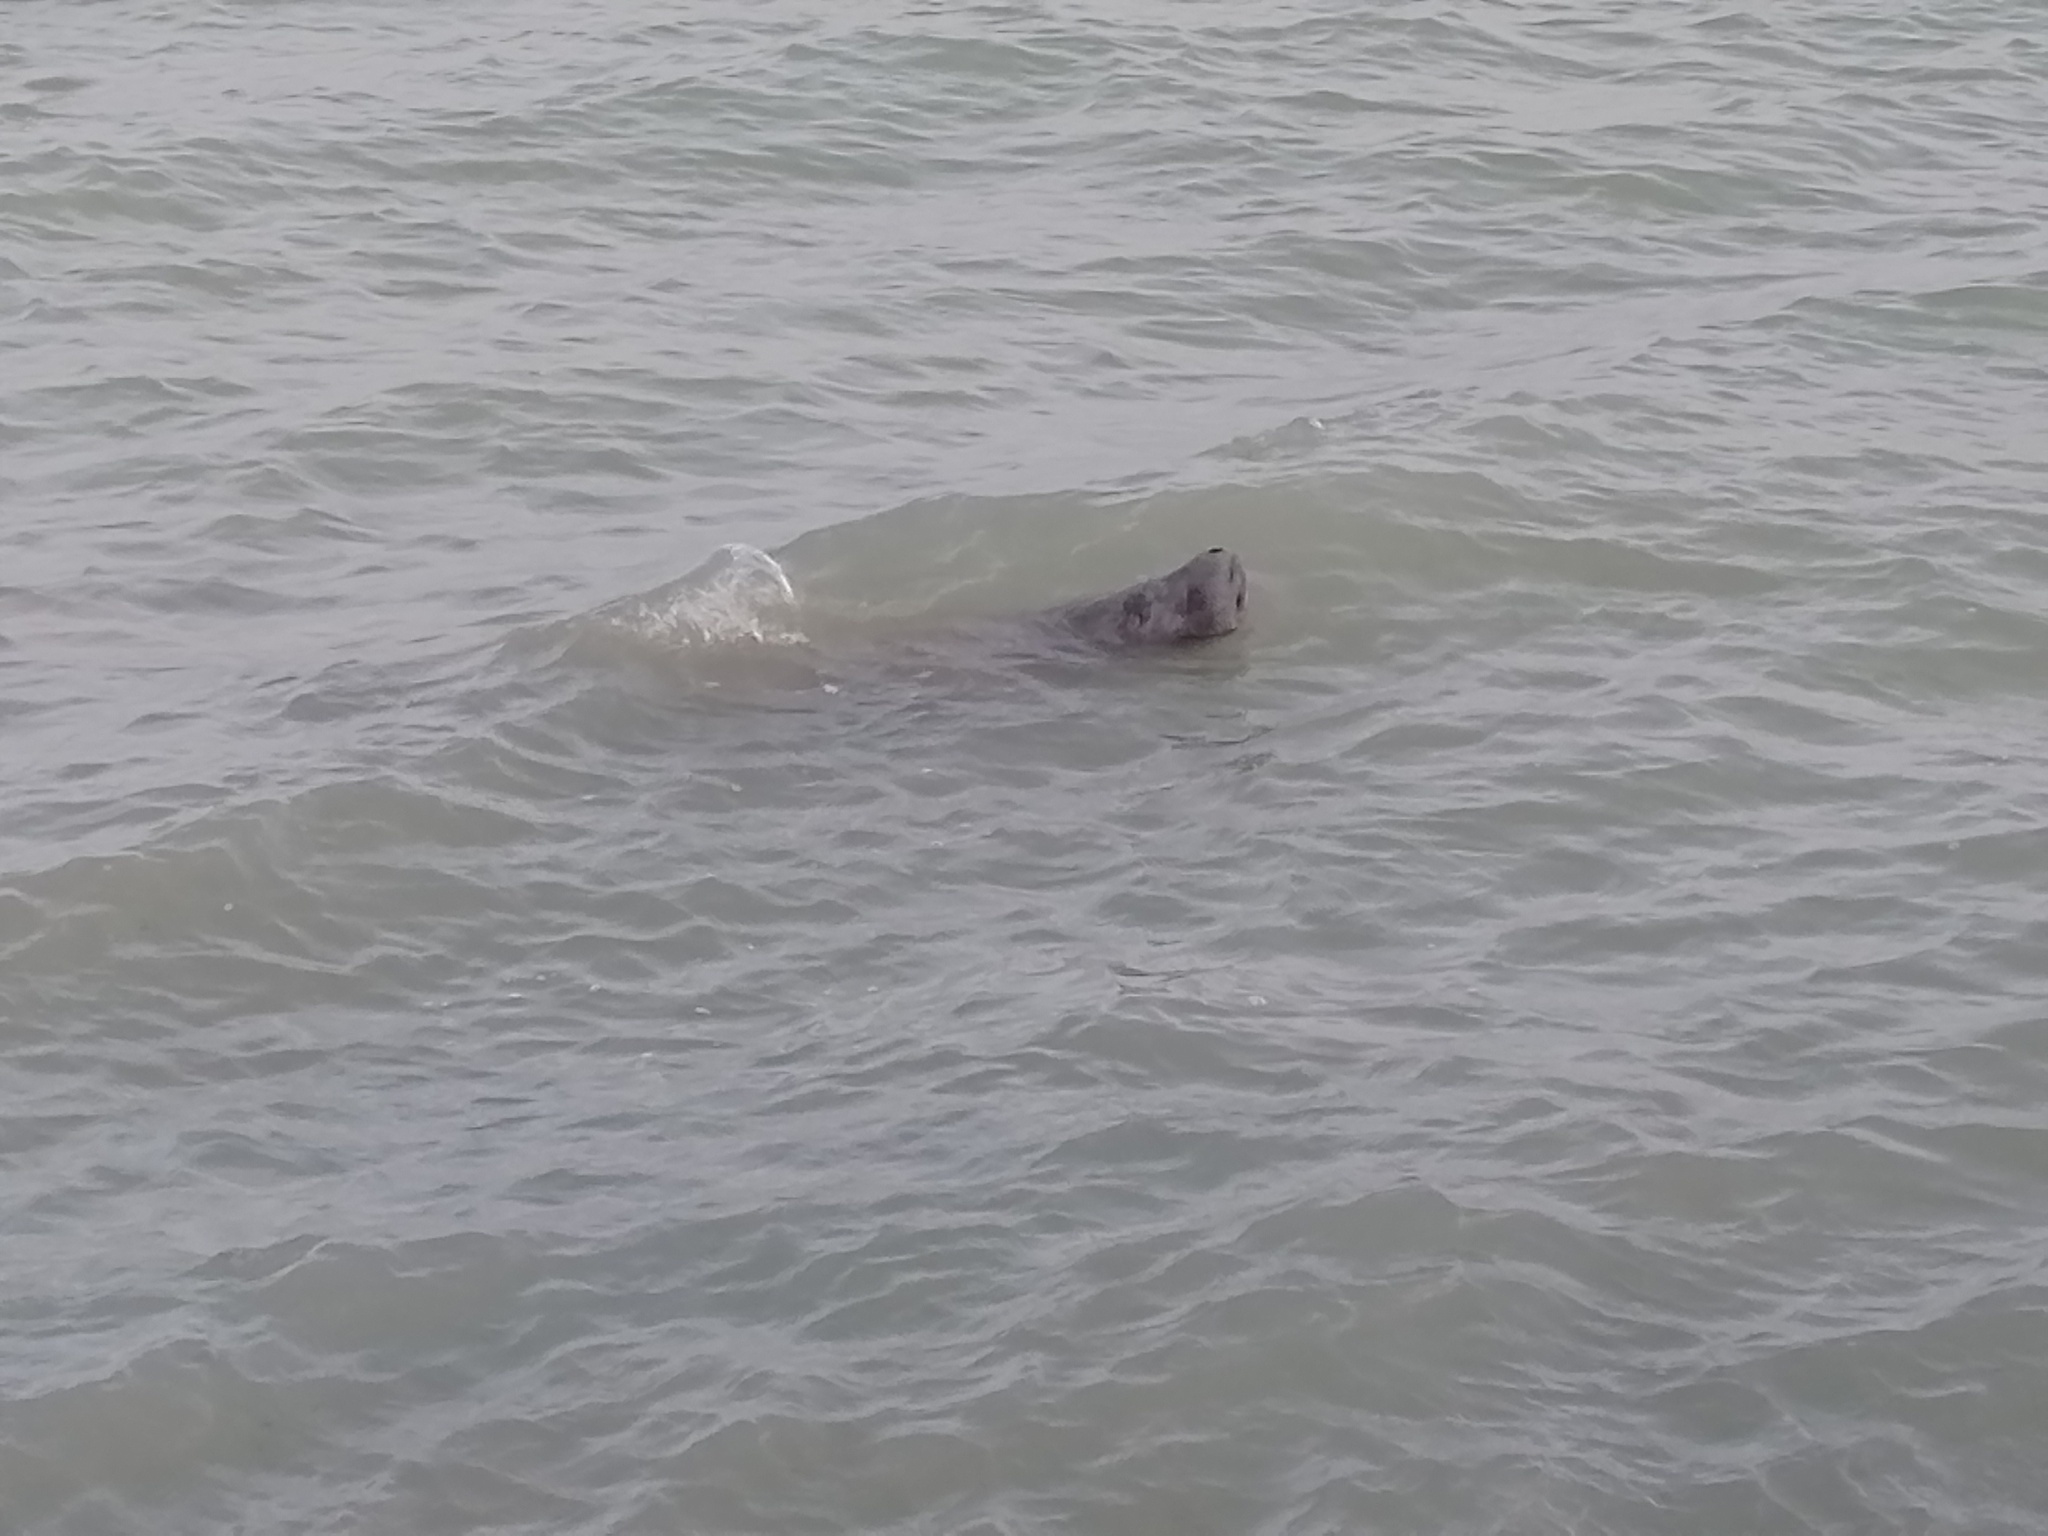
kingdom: Animalia
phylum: Chordata
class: Mammalia
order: Sirenia
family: Trichechidae
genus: Trichechus
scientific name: Trichechus manatus
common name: West indian manatee
